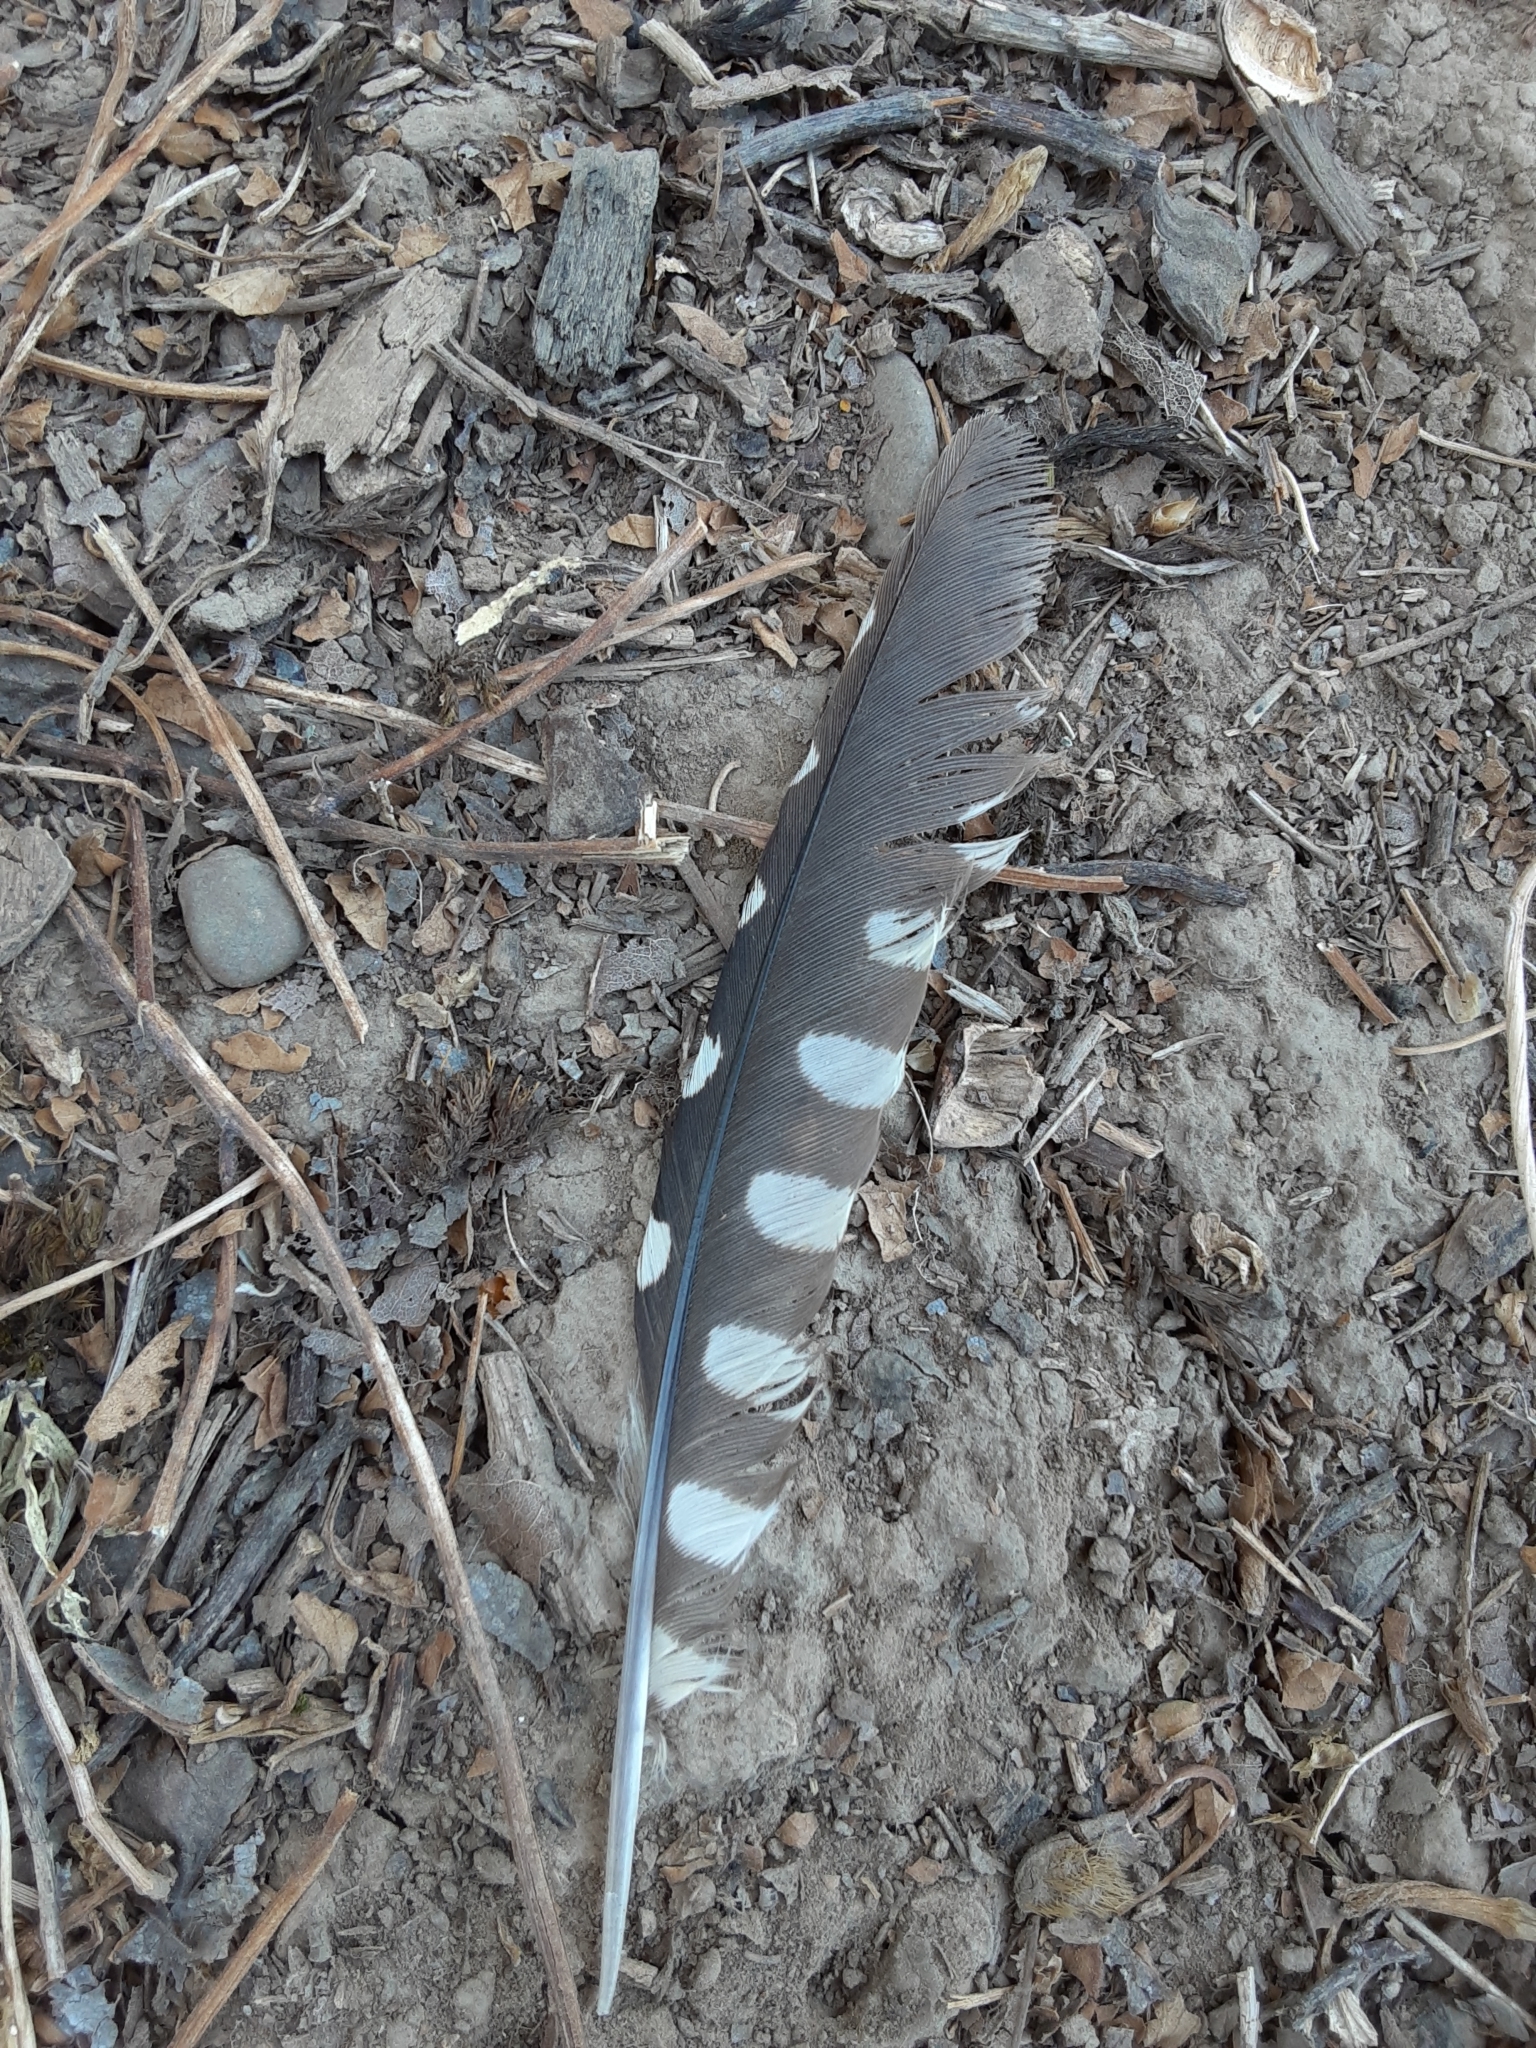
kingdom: Animalia
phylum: Chordata
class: Aves
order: Piciformes
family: Picidae
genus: Sphyrapicus
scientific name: Sphyrapicus ruber
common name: Red-breasted sapsucker
